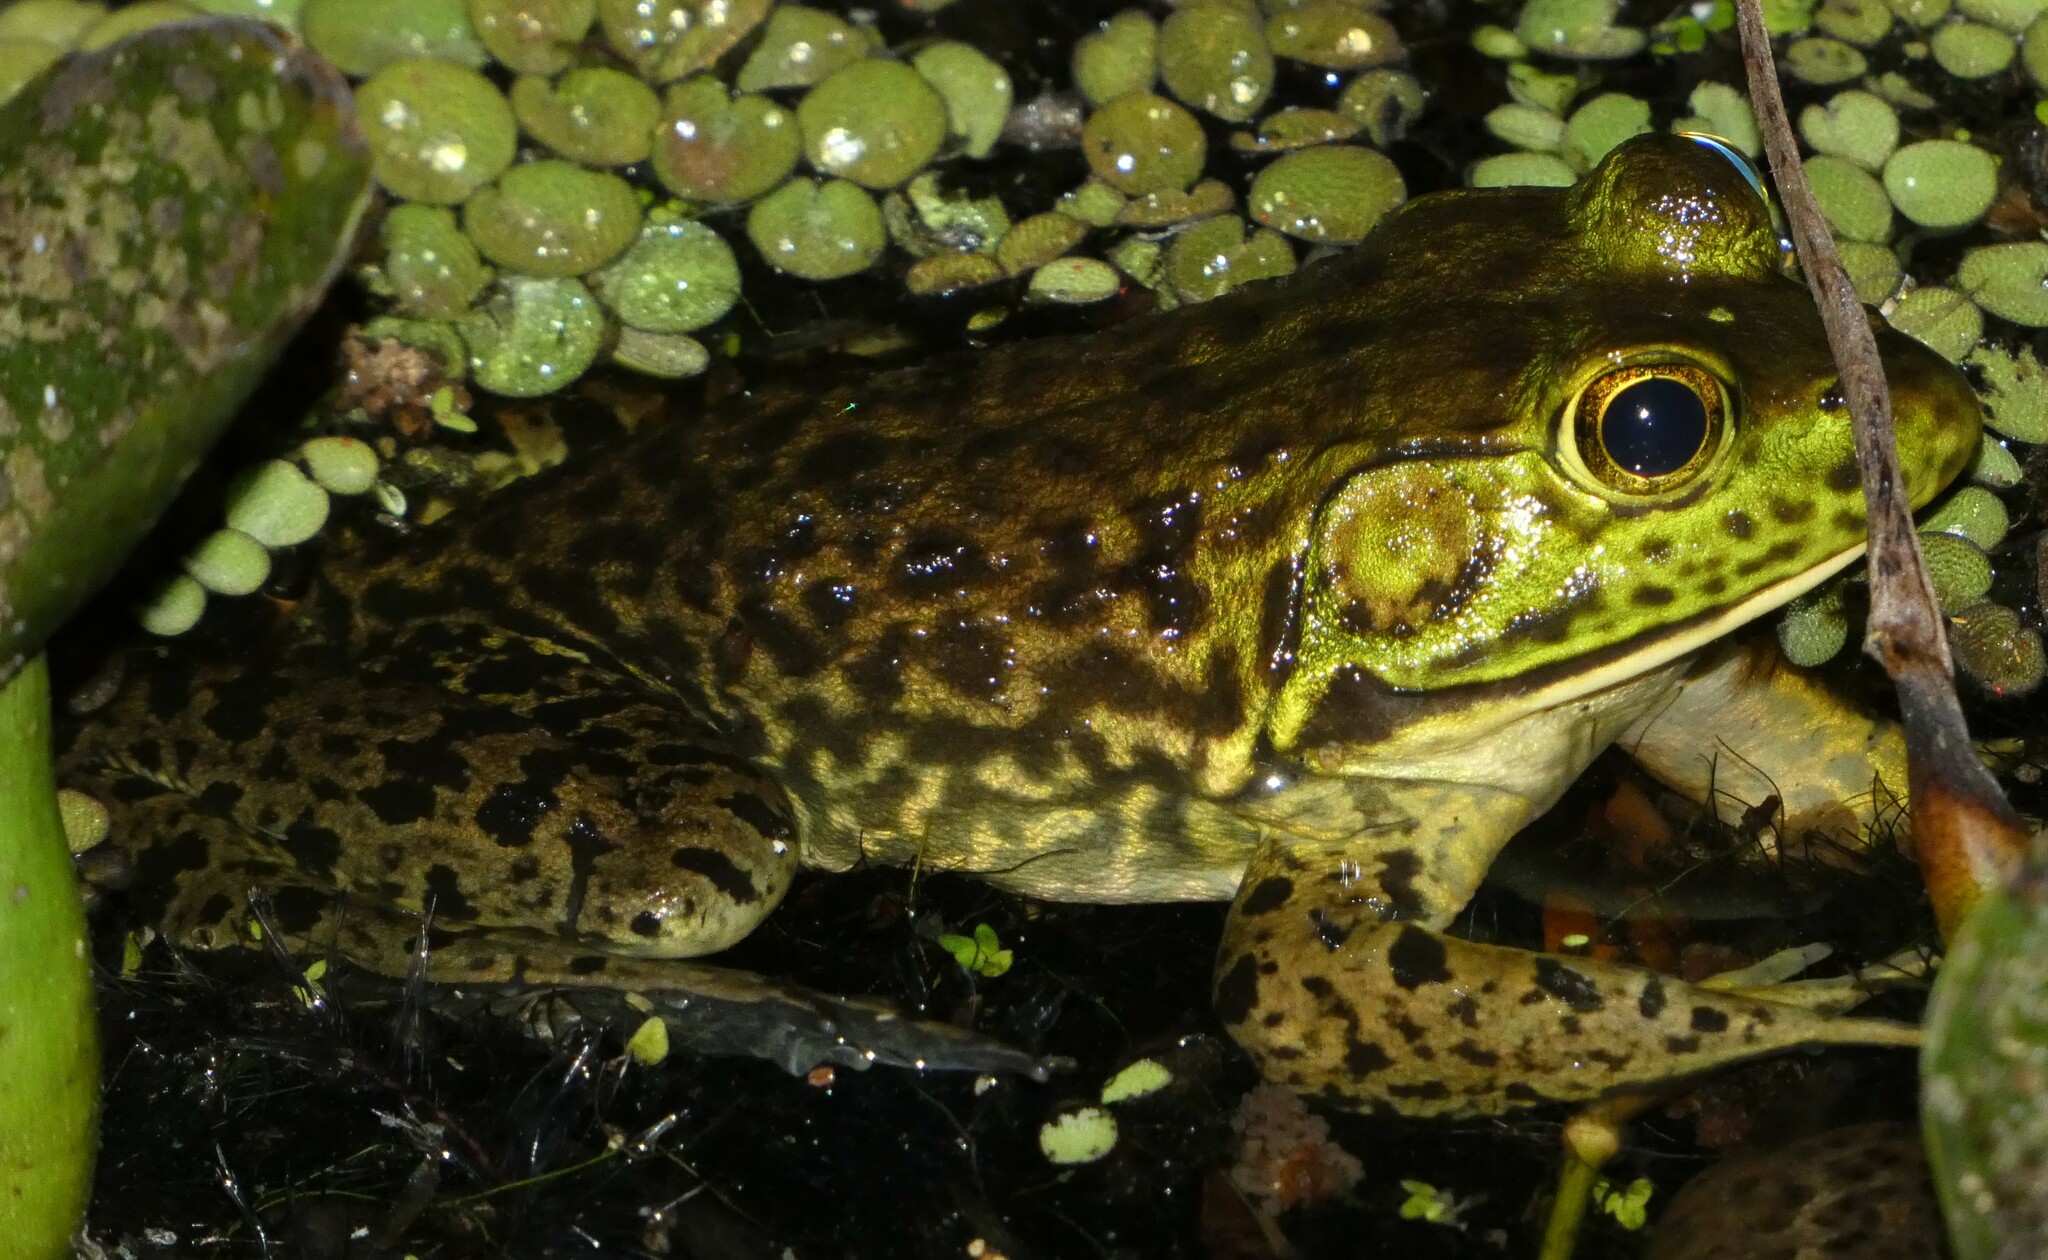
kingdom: Animalia
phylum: Chordata
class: Amphibia
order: Anura
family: Ranidae
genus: Lithobates
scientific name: Lithobates catesbeianus
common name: American bullfrog
